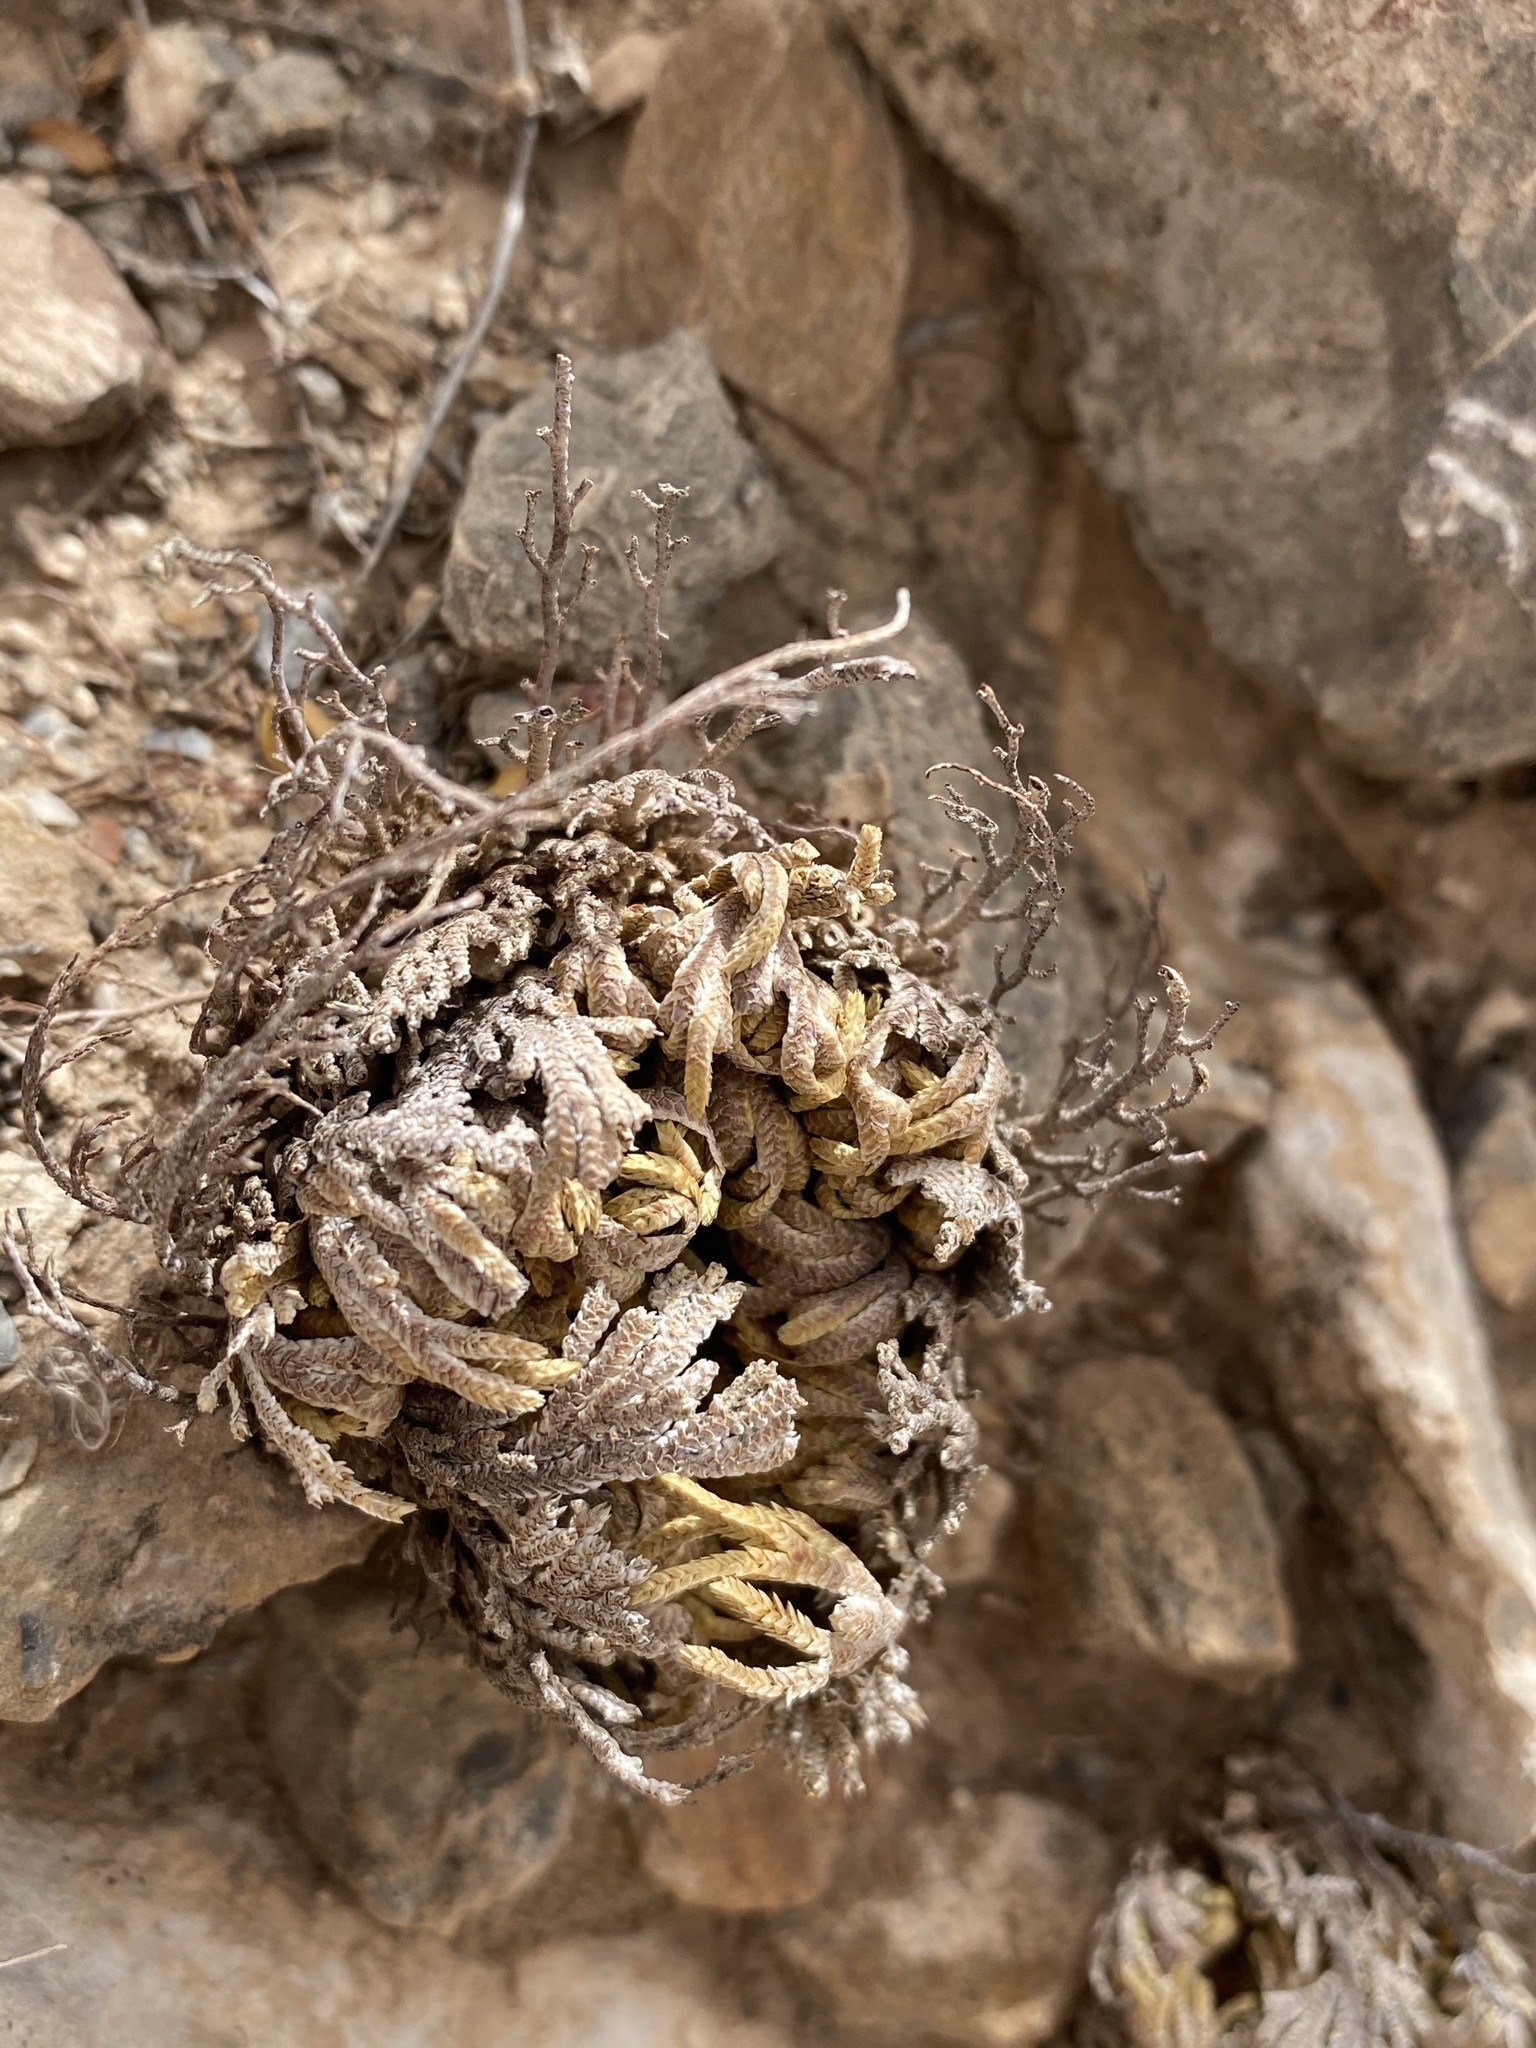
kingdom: Plantae
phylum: Tracheophyta
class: Lycopodiopsida
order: Selaginellales
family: Selaginellaceae
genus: Selaginella
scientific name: Selaginella lepidophylla
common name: Rose-of-jericho
